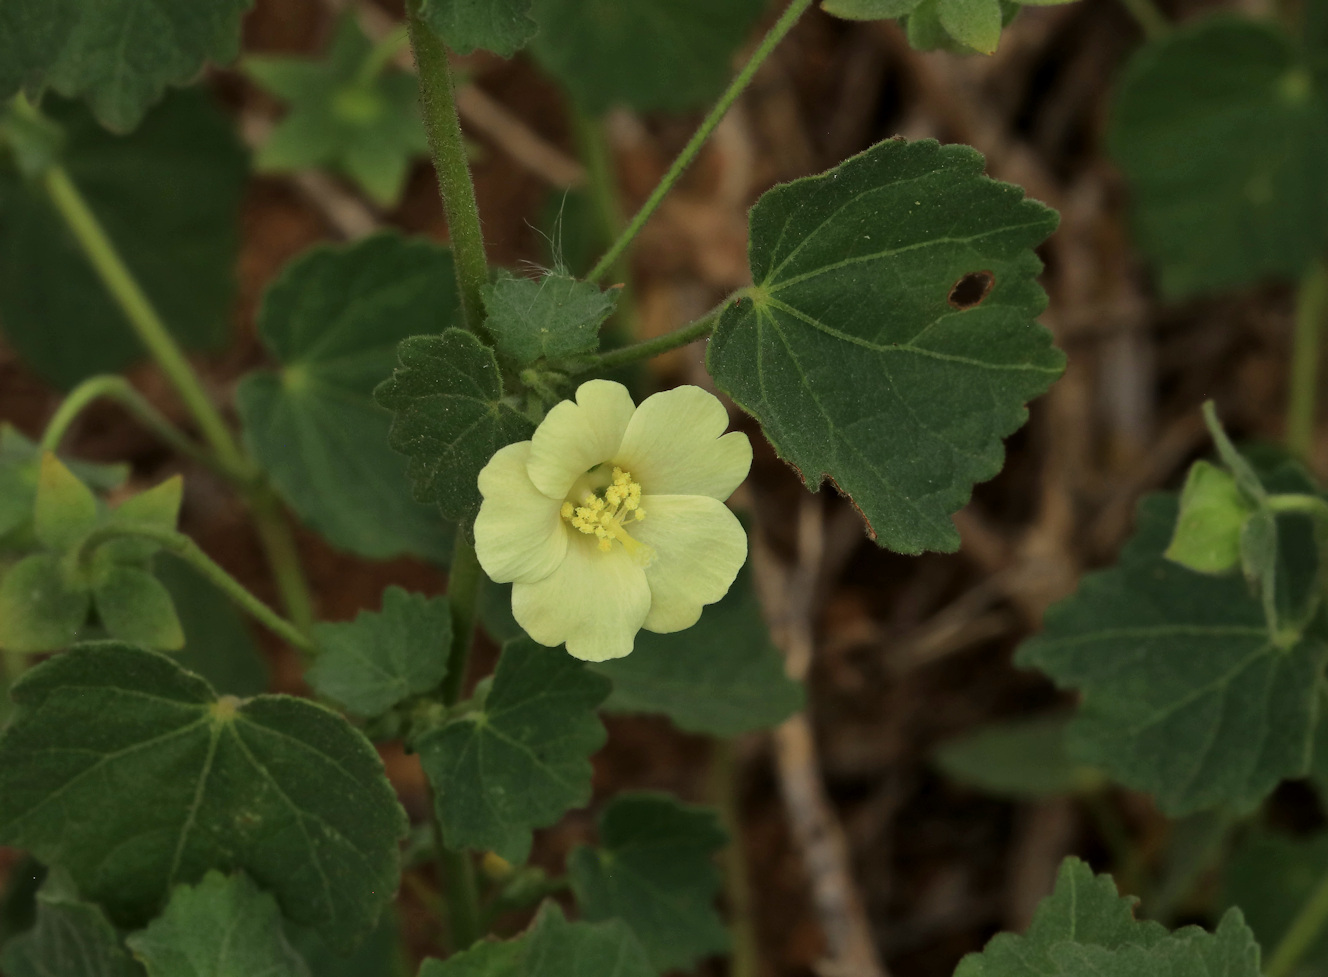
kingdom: Plantae
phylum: Tracheophyta
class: Magnoliopsida
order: Malvales
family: Malvaceae
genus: Pavonia
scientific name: Pavonia burchellii
